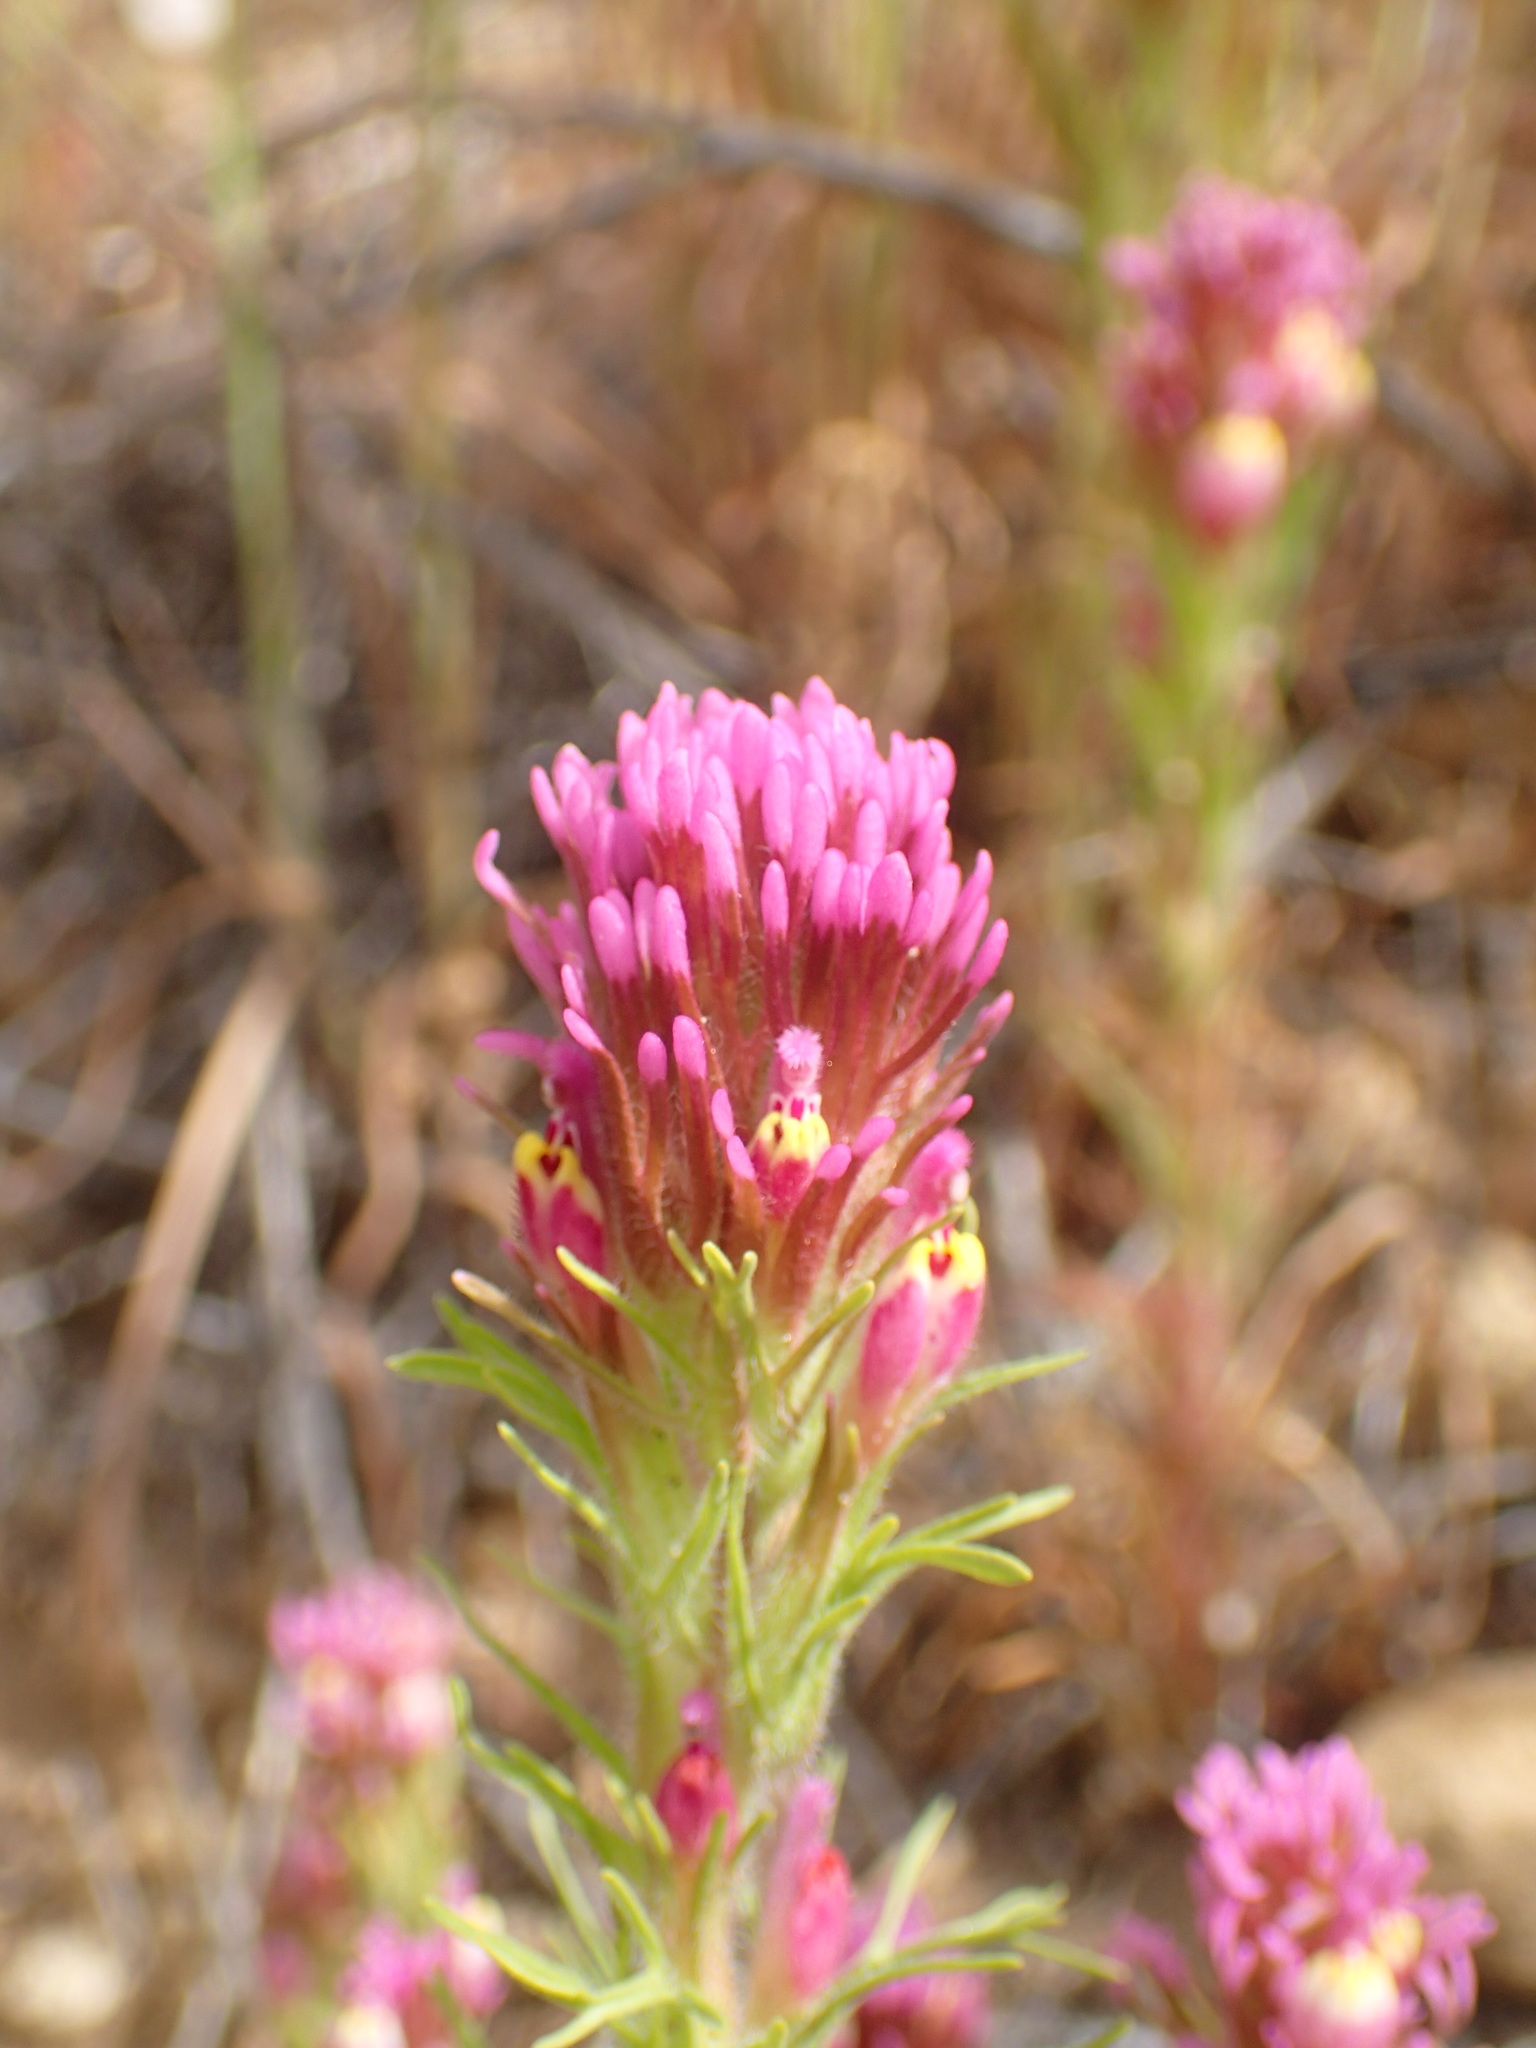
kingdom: Plantae
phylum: Tracheophyta
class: Magnoliopsida
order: Lamiales
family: Orobanchaceae
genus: Castilleja
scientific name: Castilleja exserta
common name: Purple owl-clover
